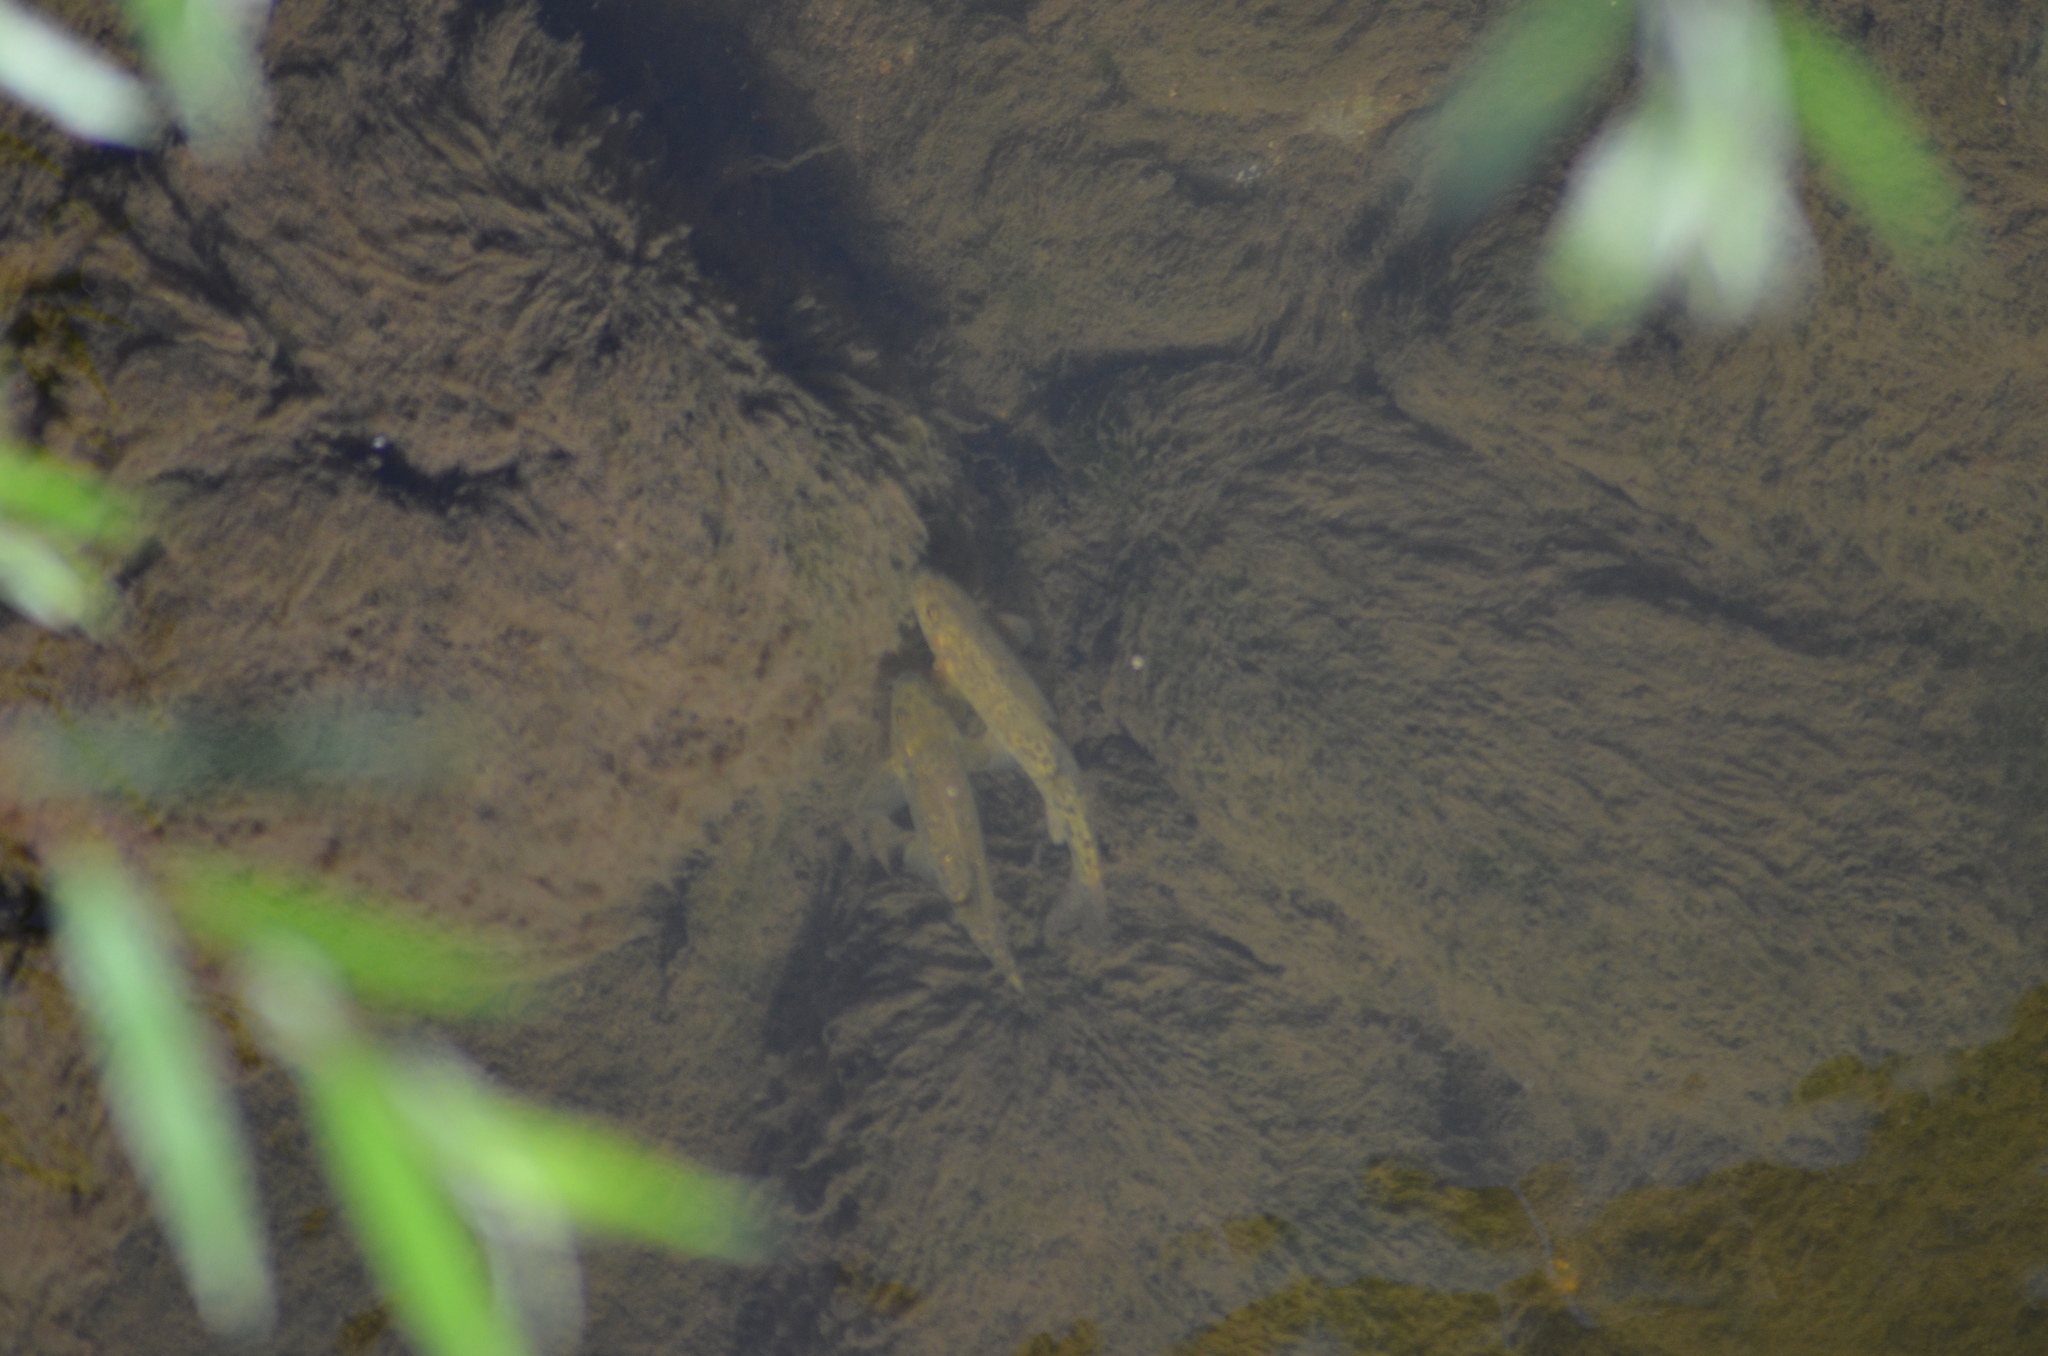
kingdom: Animalia
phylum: Chordata
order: Cypriniformes
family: Cyprinidae
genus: Barbus
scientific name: Barbus meridionalis
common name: Mediterranean barbel
